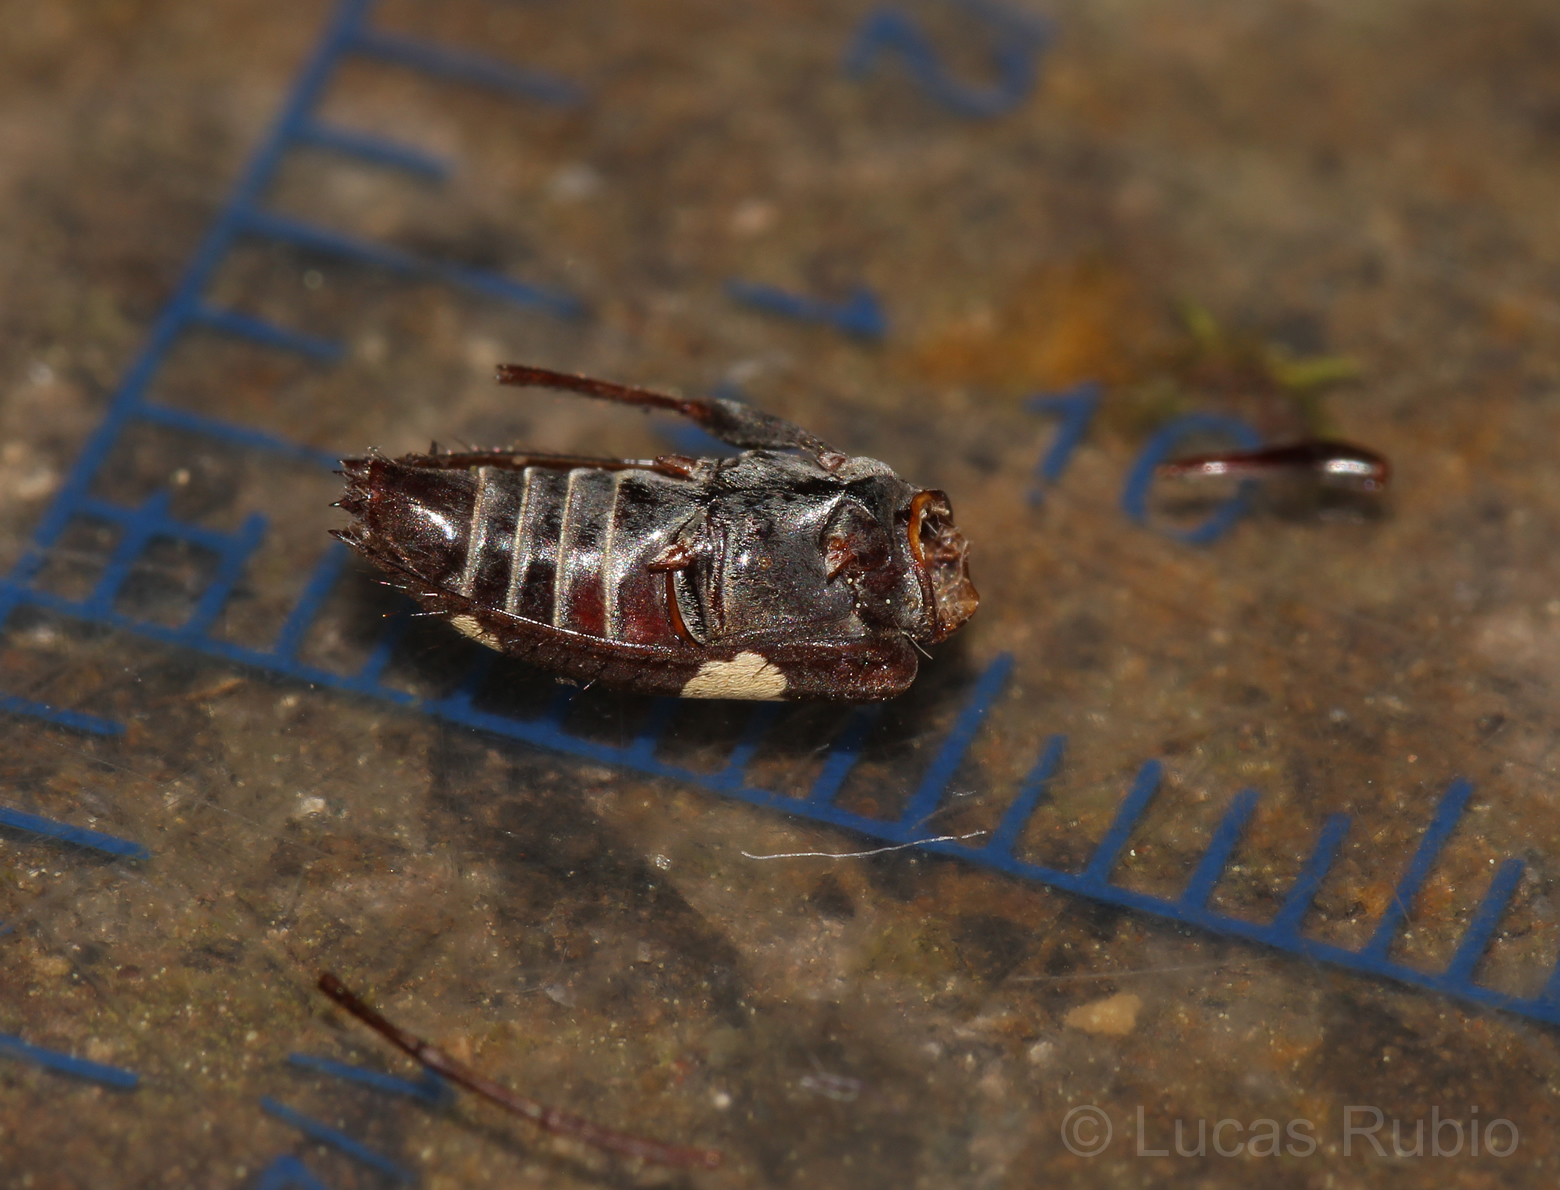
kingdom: Animalia
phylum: Arthropoda
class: Insecta
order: Coleoptera
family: Cerambycidae
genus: Alcidion
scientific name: Alcidion ludicrum
